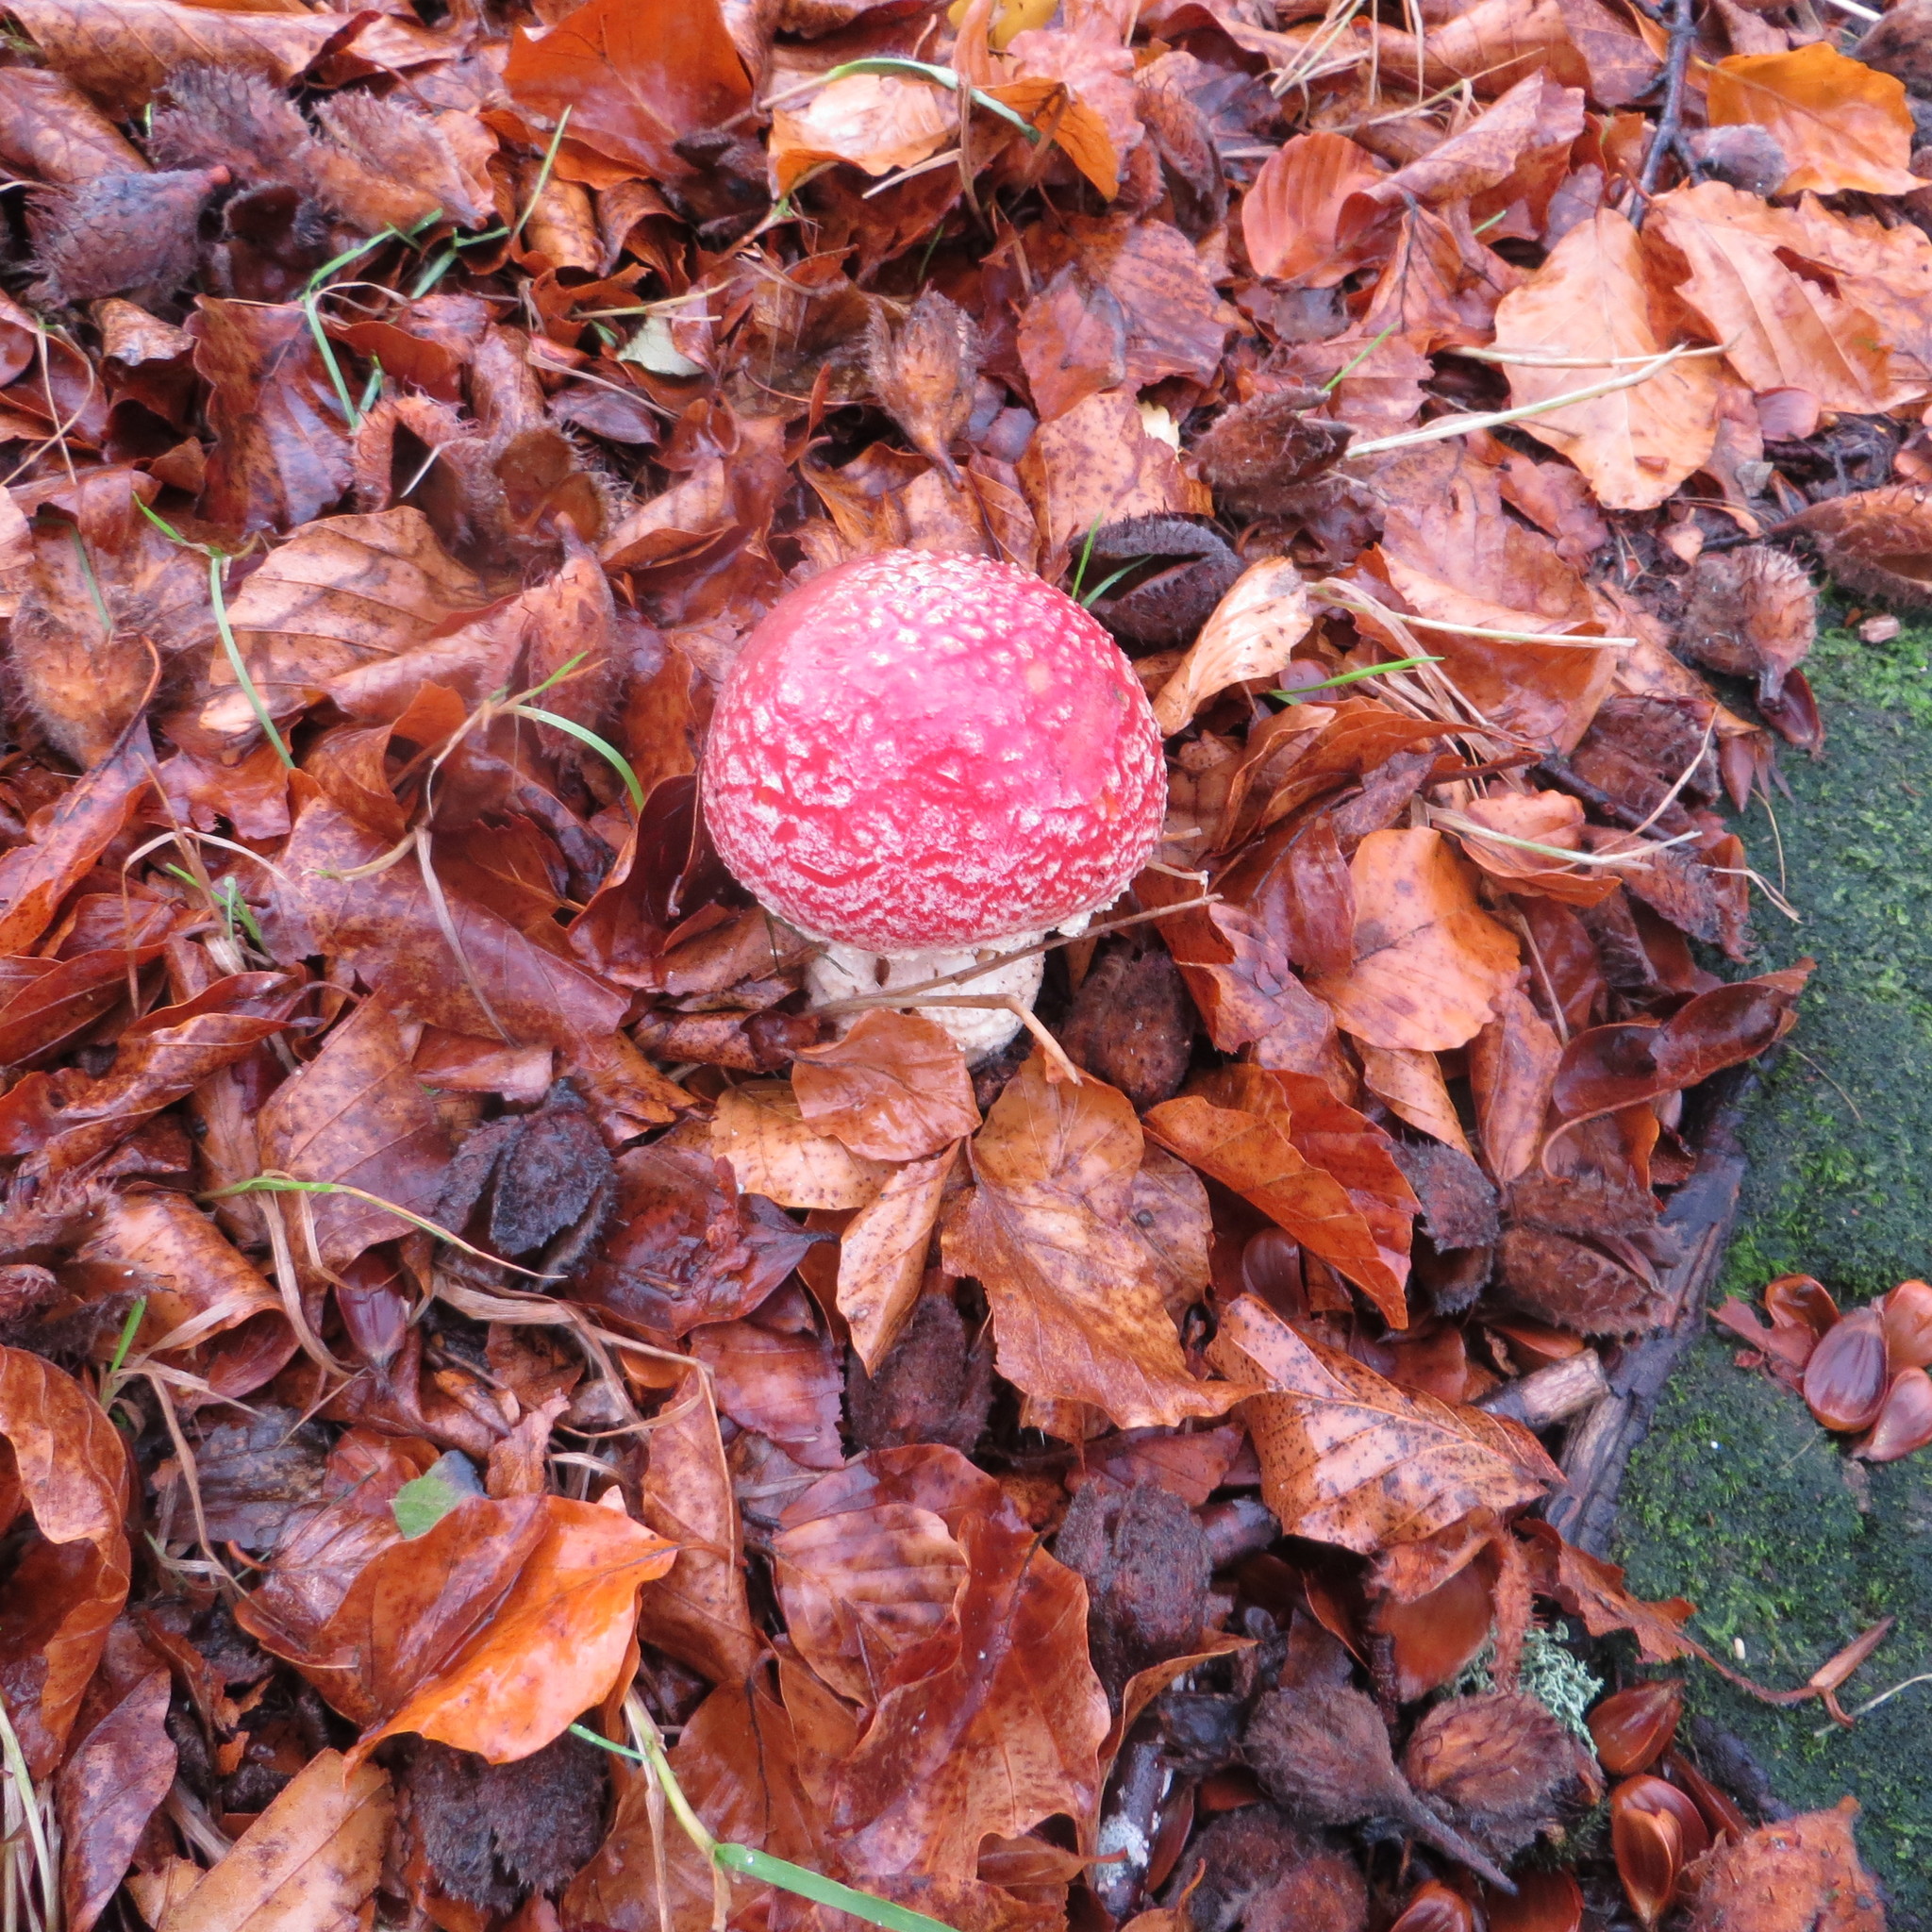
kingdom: Fungi
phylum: Basidiomycota
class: Agaricomycetes
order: Agaricales
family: Amanitaceae
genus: Amanita
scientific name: Amanita muscaria
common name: Fly agaric
